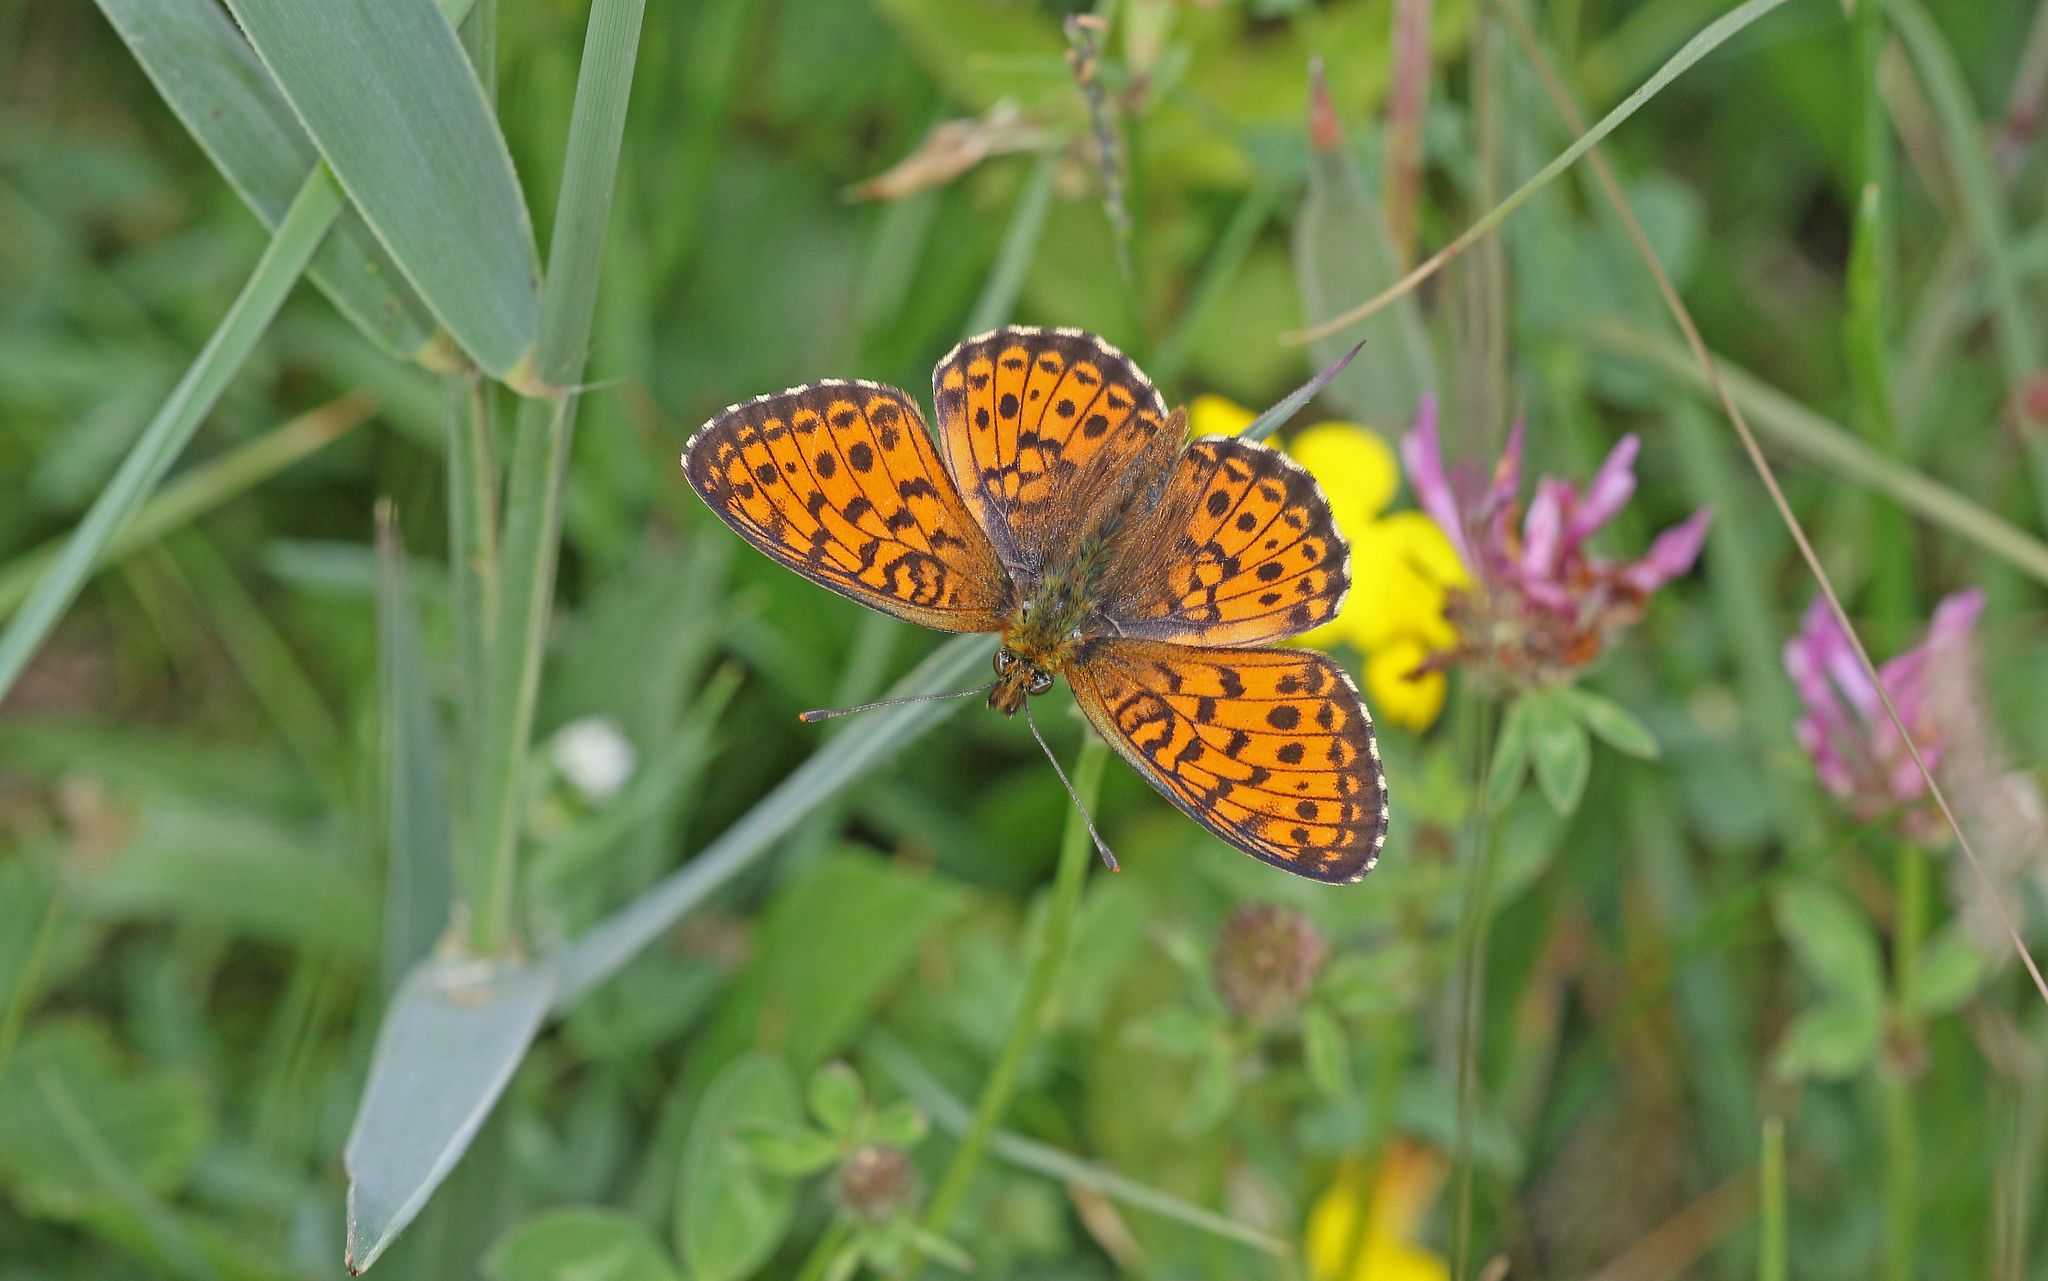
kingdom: Animalia
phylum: Arthropoda
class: Insecta
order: Lepidoptera
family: Nymphalidae
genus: Brenthis
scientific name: Brenthis ino
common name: Lesser marbled fritillary
